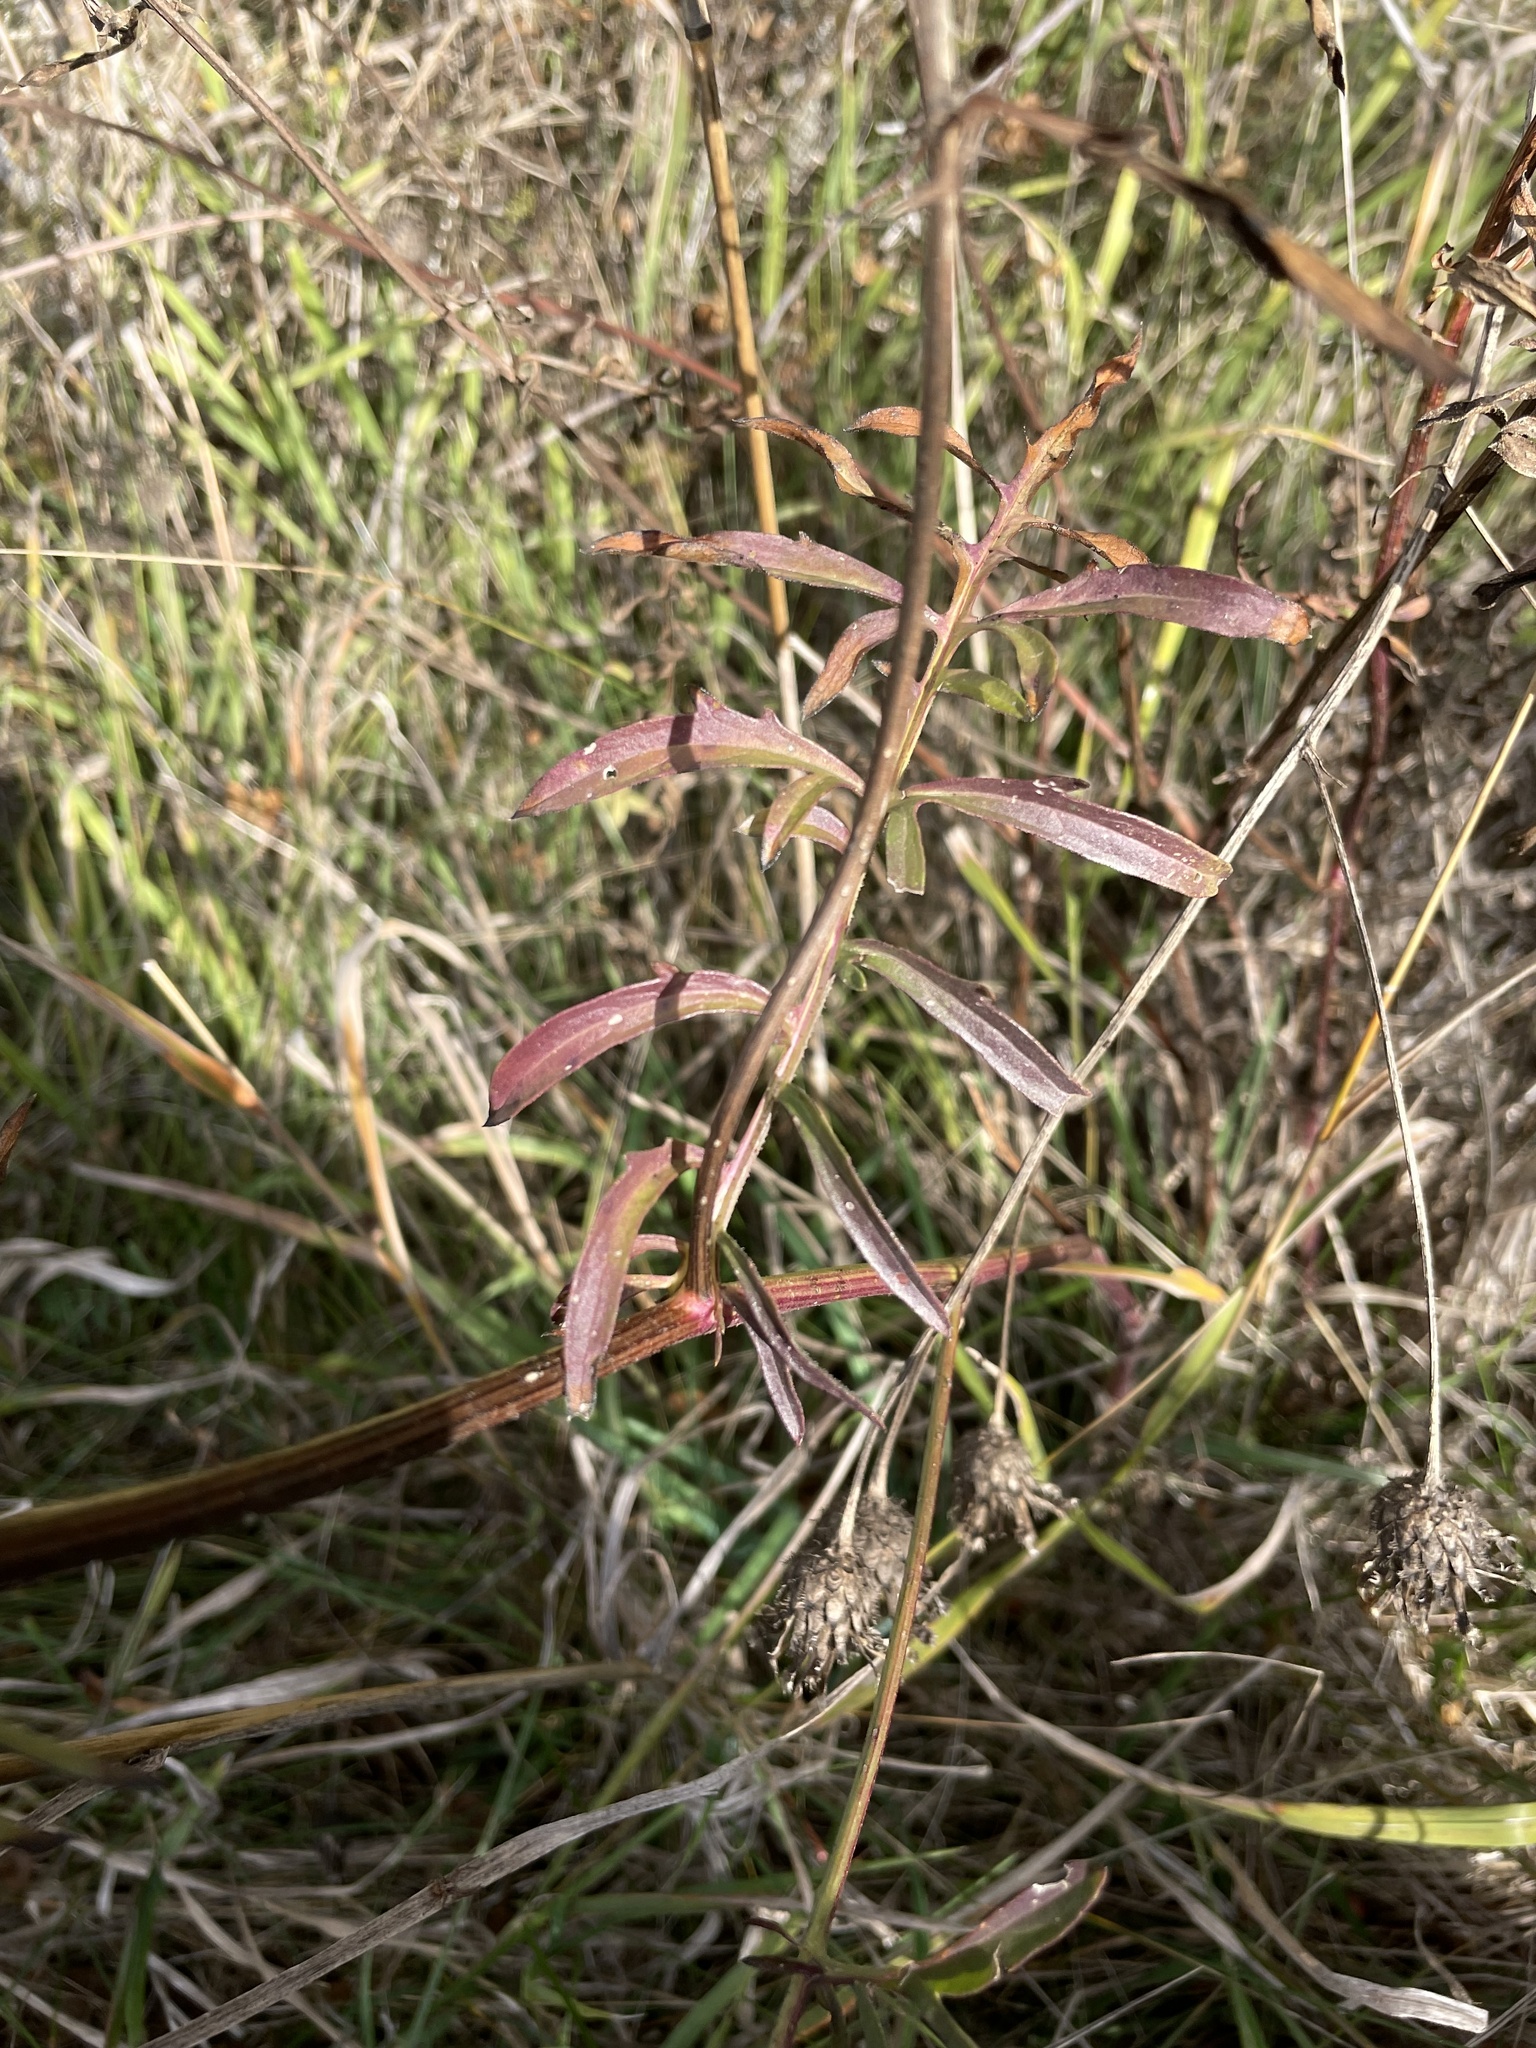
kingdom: Plantae
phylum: Tracheophyta
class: Magnoliopsida
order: Asterales
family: Asteraceae
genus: Centaurea
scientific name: Centaurea scabiosa
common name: Greater knapweed
